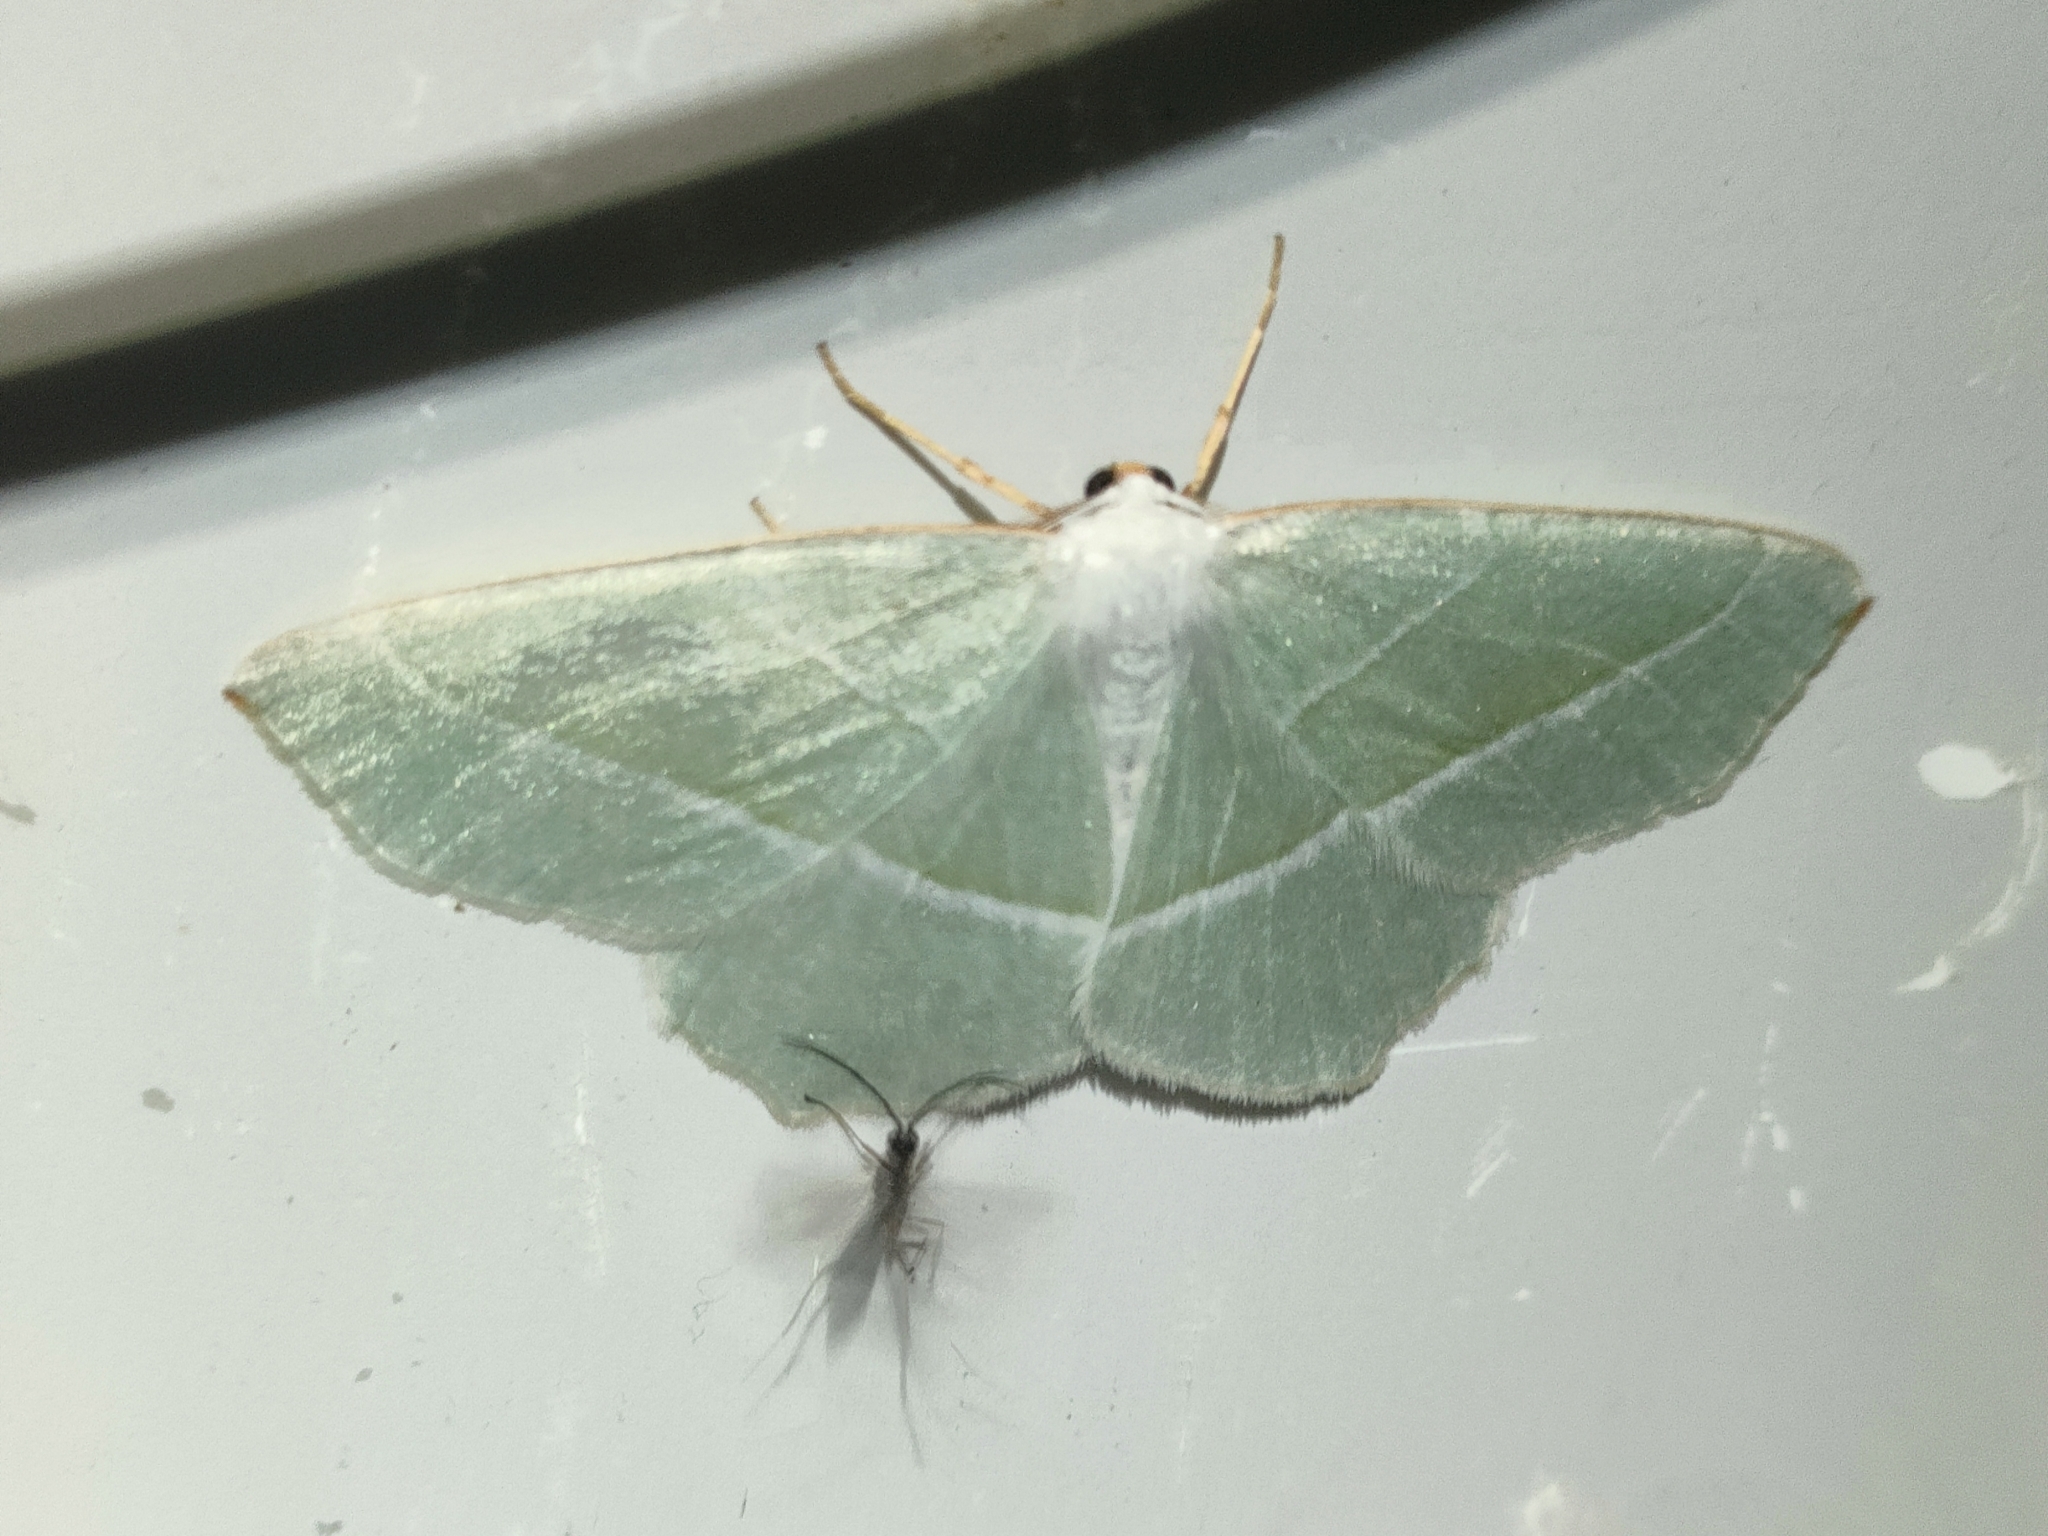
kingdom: Animalia
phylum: Arthropoda
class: Insecta
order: Lepidoptera
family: Geometridae
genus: Campaea
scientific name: Campaea margaritaria
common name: Light emerald
